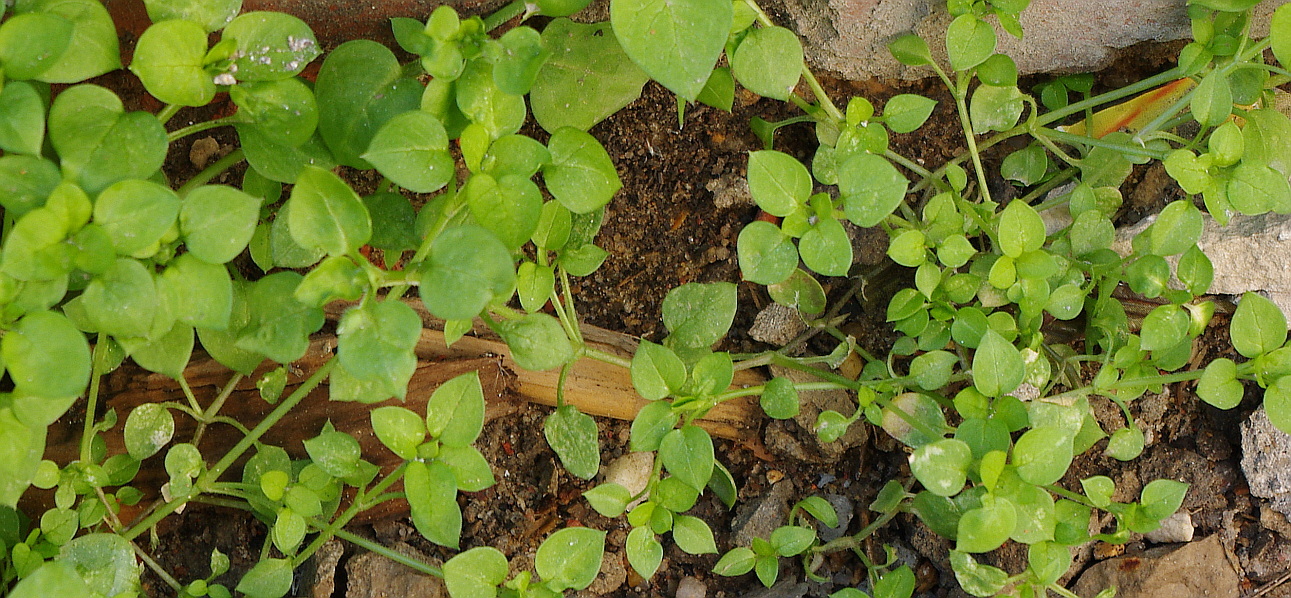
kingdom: Plantae
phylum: Tracheophyta
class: Magnoliopsida
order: Caryophyllales
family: Caryophyllaceae
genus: Stellaria
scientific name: Stellaria media
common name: Common chickweed
